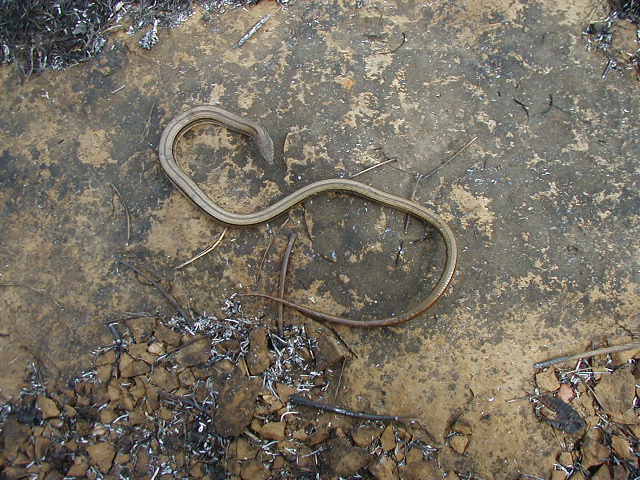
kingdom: Animalia
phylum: Chordata
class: Squamata
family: Anguidae
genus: Ophisaurus
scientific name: Ophisaurus attenuatus
